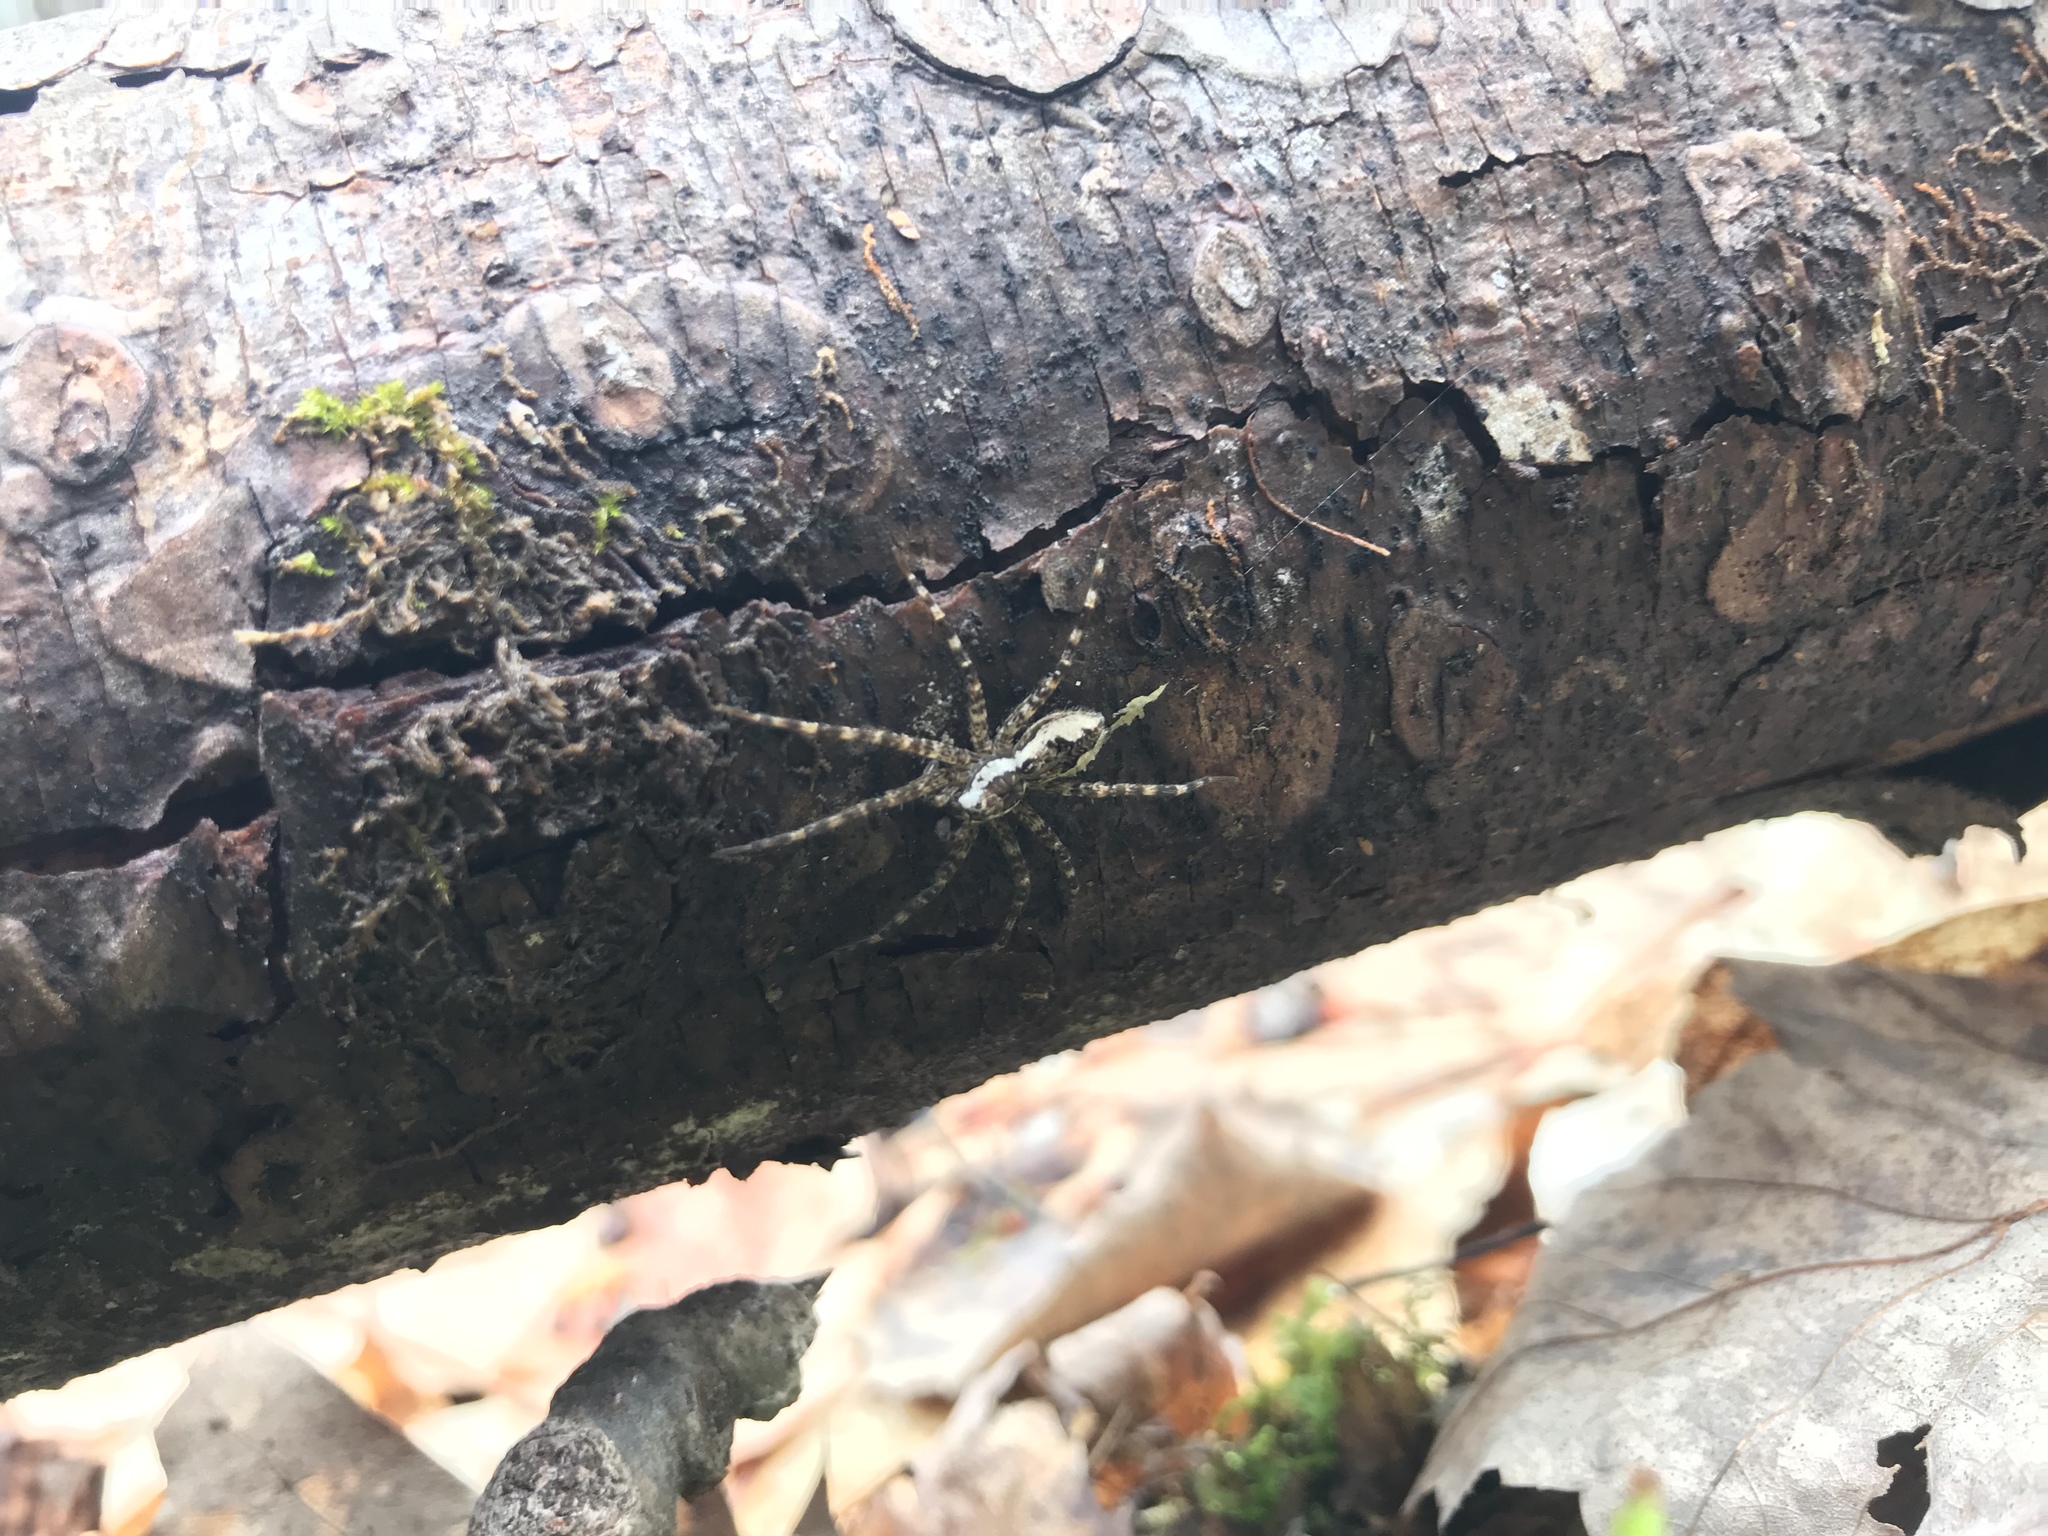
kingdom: Animalia
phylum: Arthropoda
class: Arachnida
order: Araneae
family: Pisauridae
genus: Dolomedes
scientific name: Dolomedes tenebrosus
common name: Dark fishing spider
